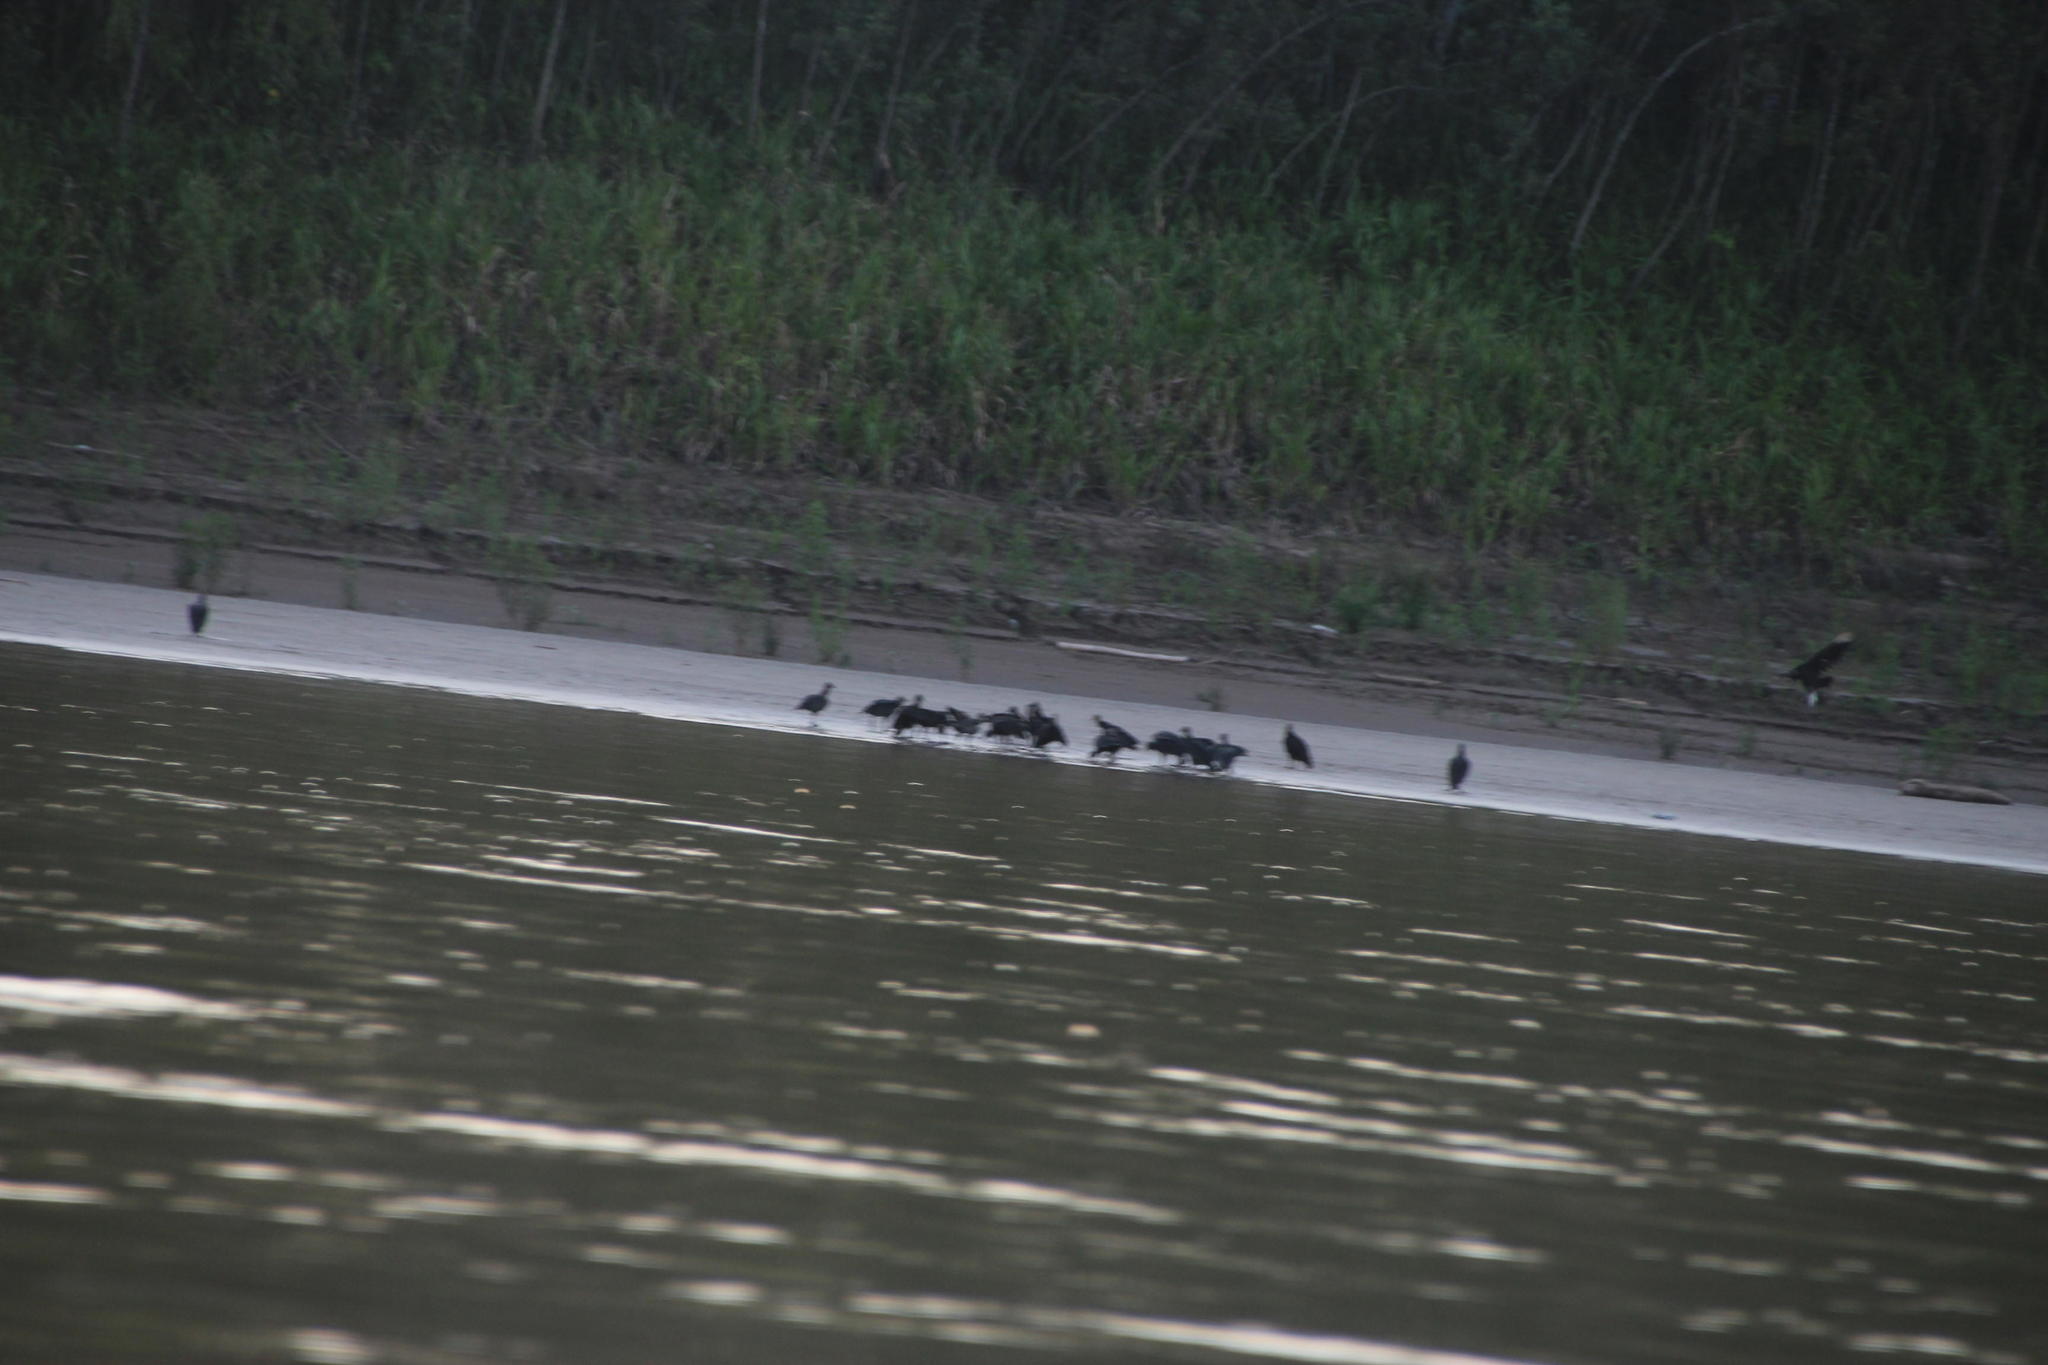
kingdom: Animalia
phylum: Chordata
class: Aves
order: Accipitriformes
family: Cathartidae
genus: Coragyps
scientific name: Coragyps atratus
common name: Black vulture
